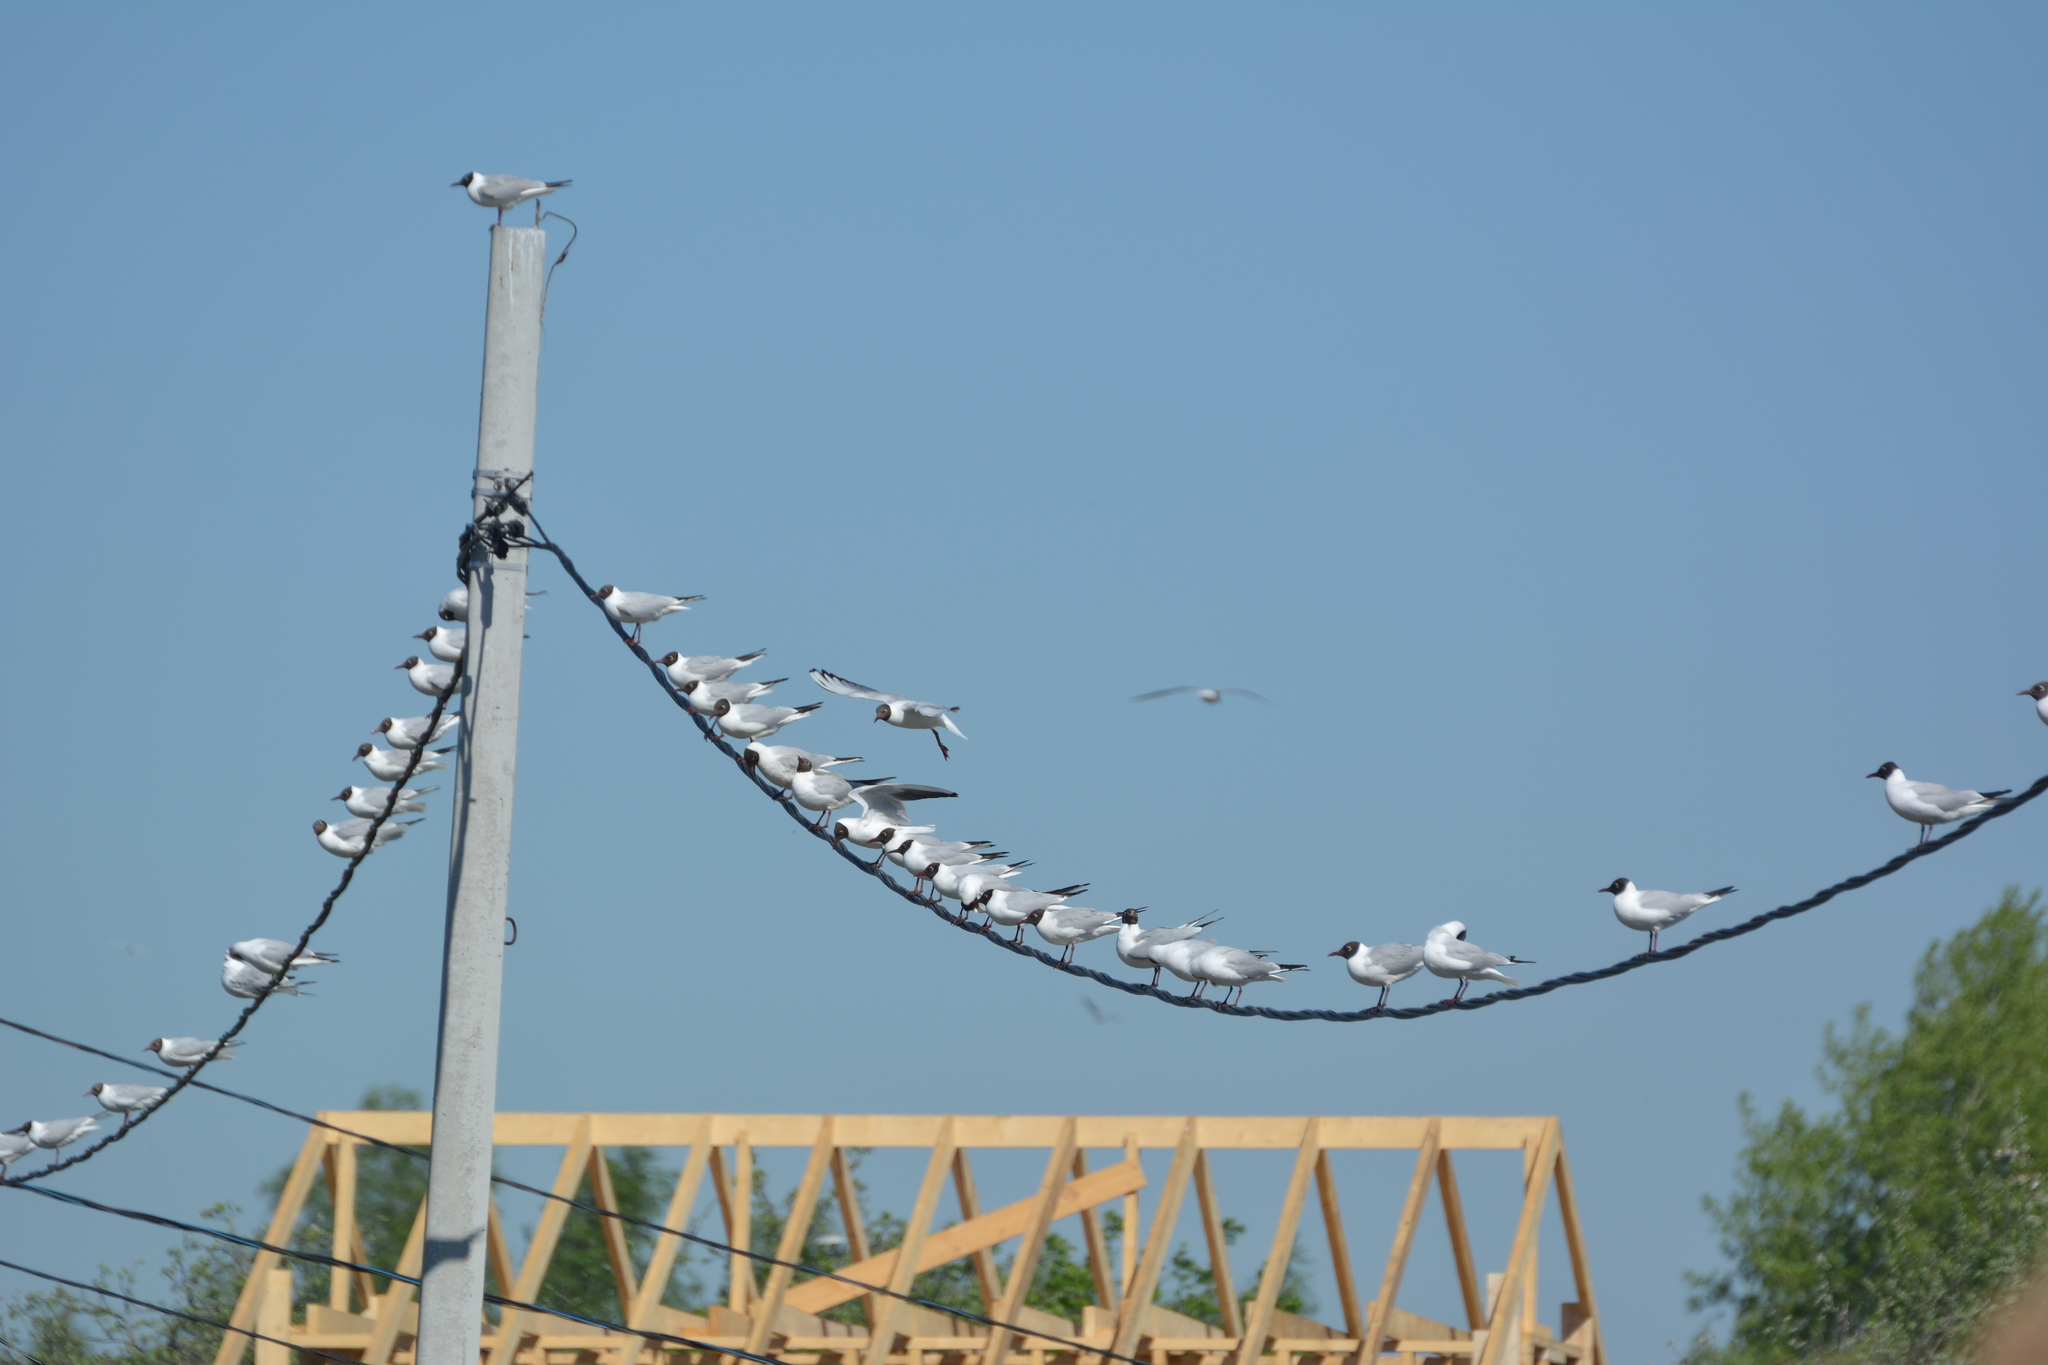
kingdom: Animalia
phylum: Chordata
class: Aves
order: Charadriiformes
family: Laridae
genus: Chroicocephalus
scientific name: Chroicocephalus ridibundus
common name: Black-headed gull
